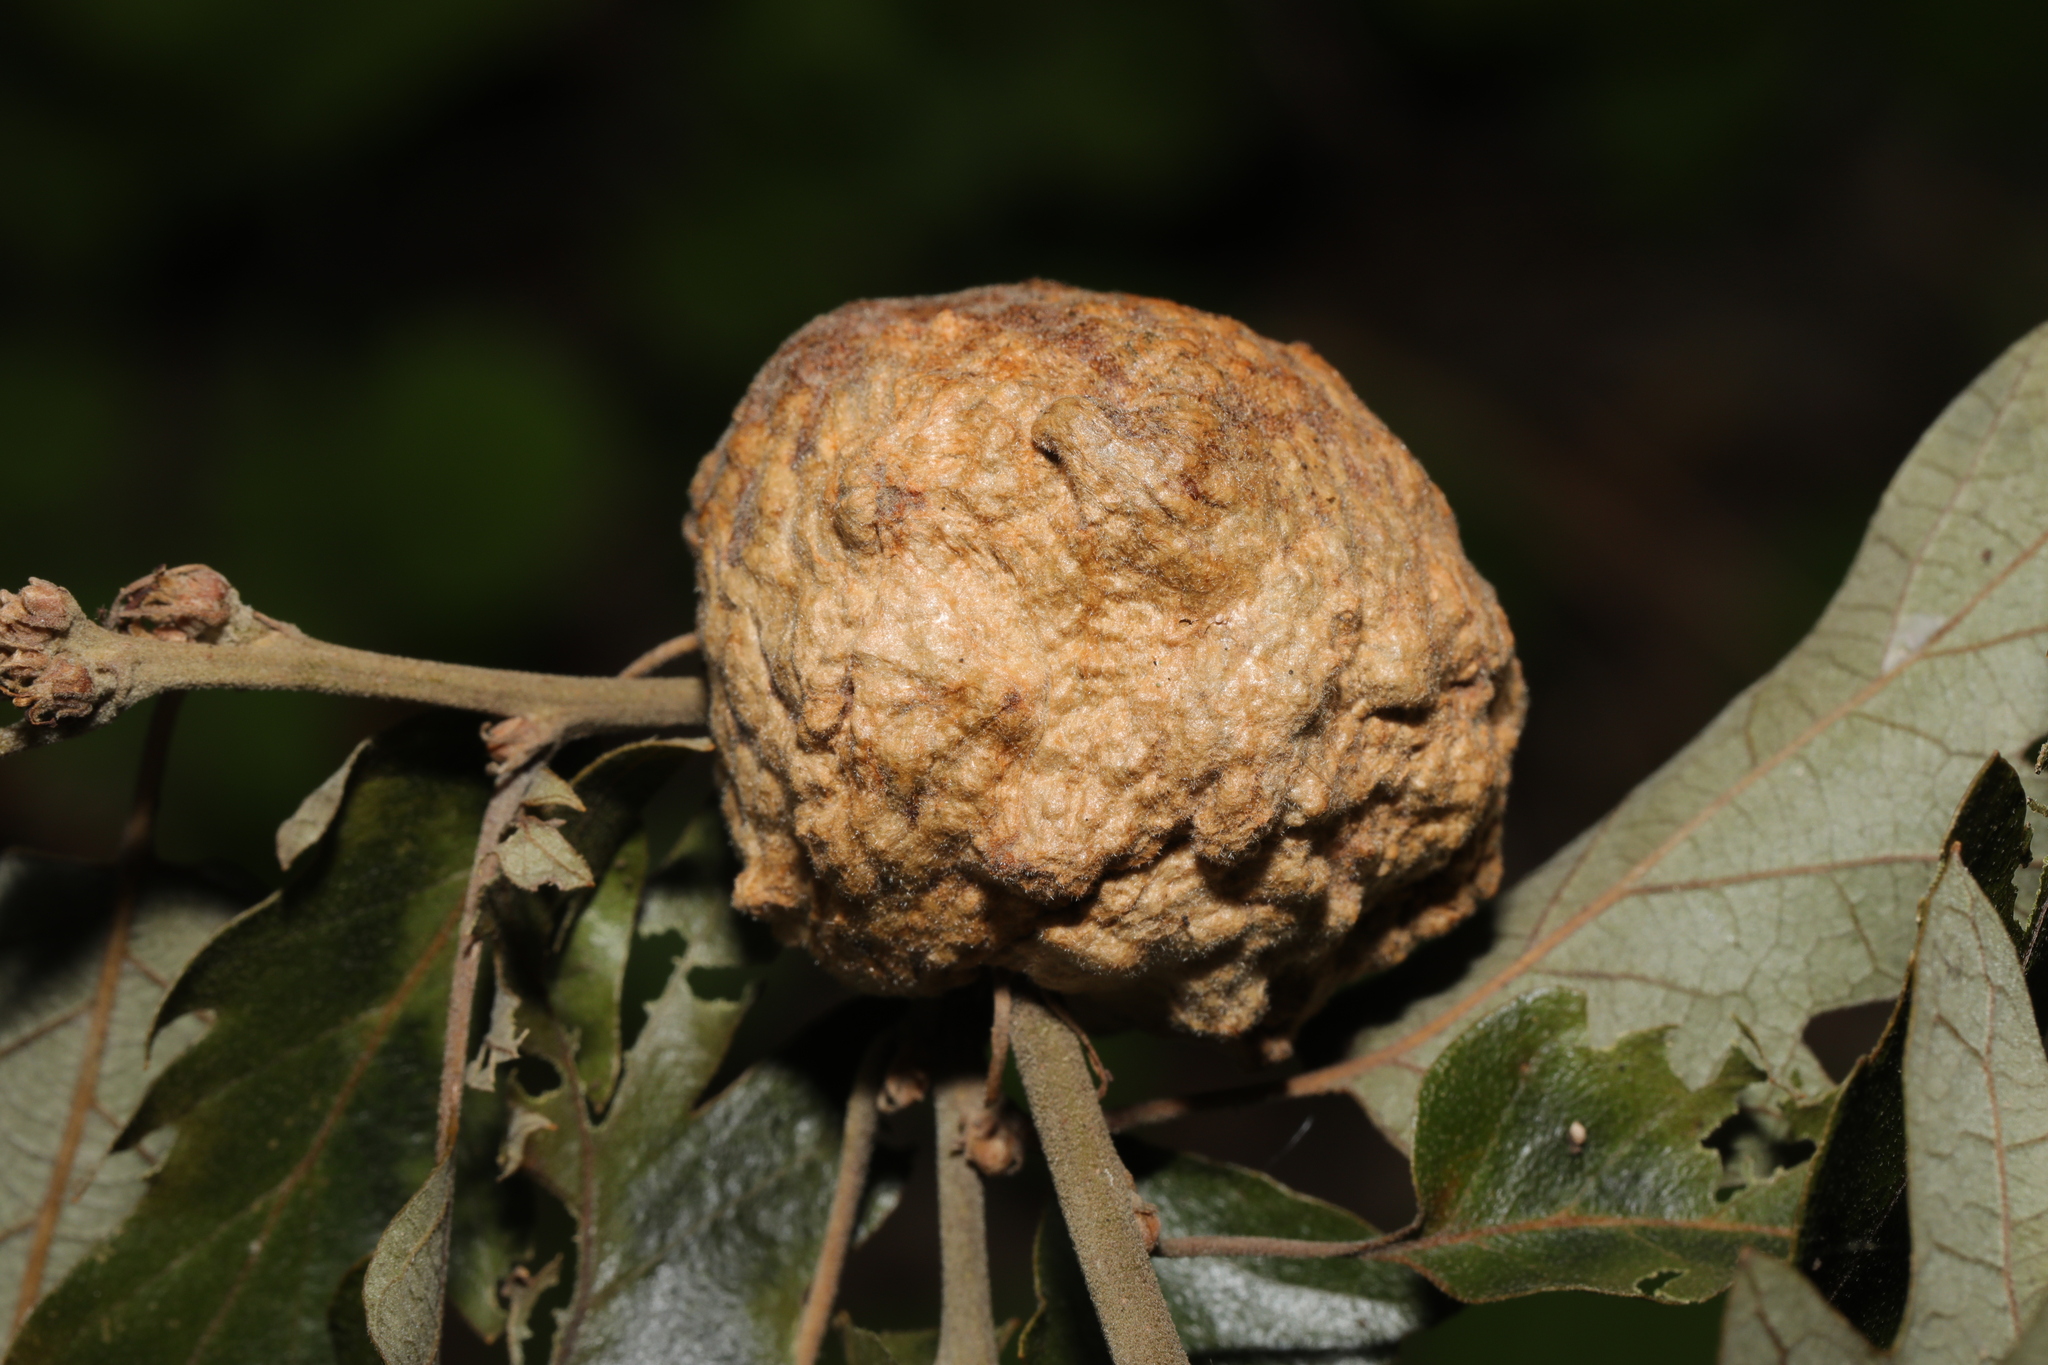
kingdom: Animalia
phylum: Arthropoda
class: Insecta
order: Hymenoptera
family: Cynipidae
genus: Aphelonyx
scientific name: Aphelonyx cerricola
